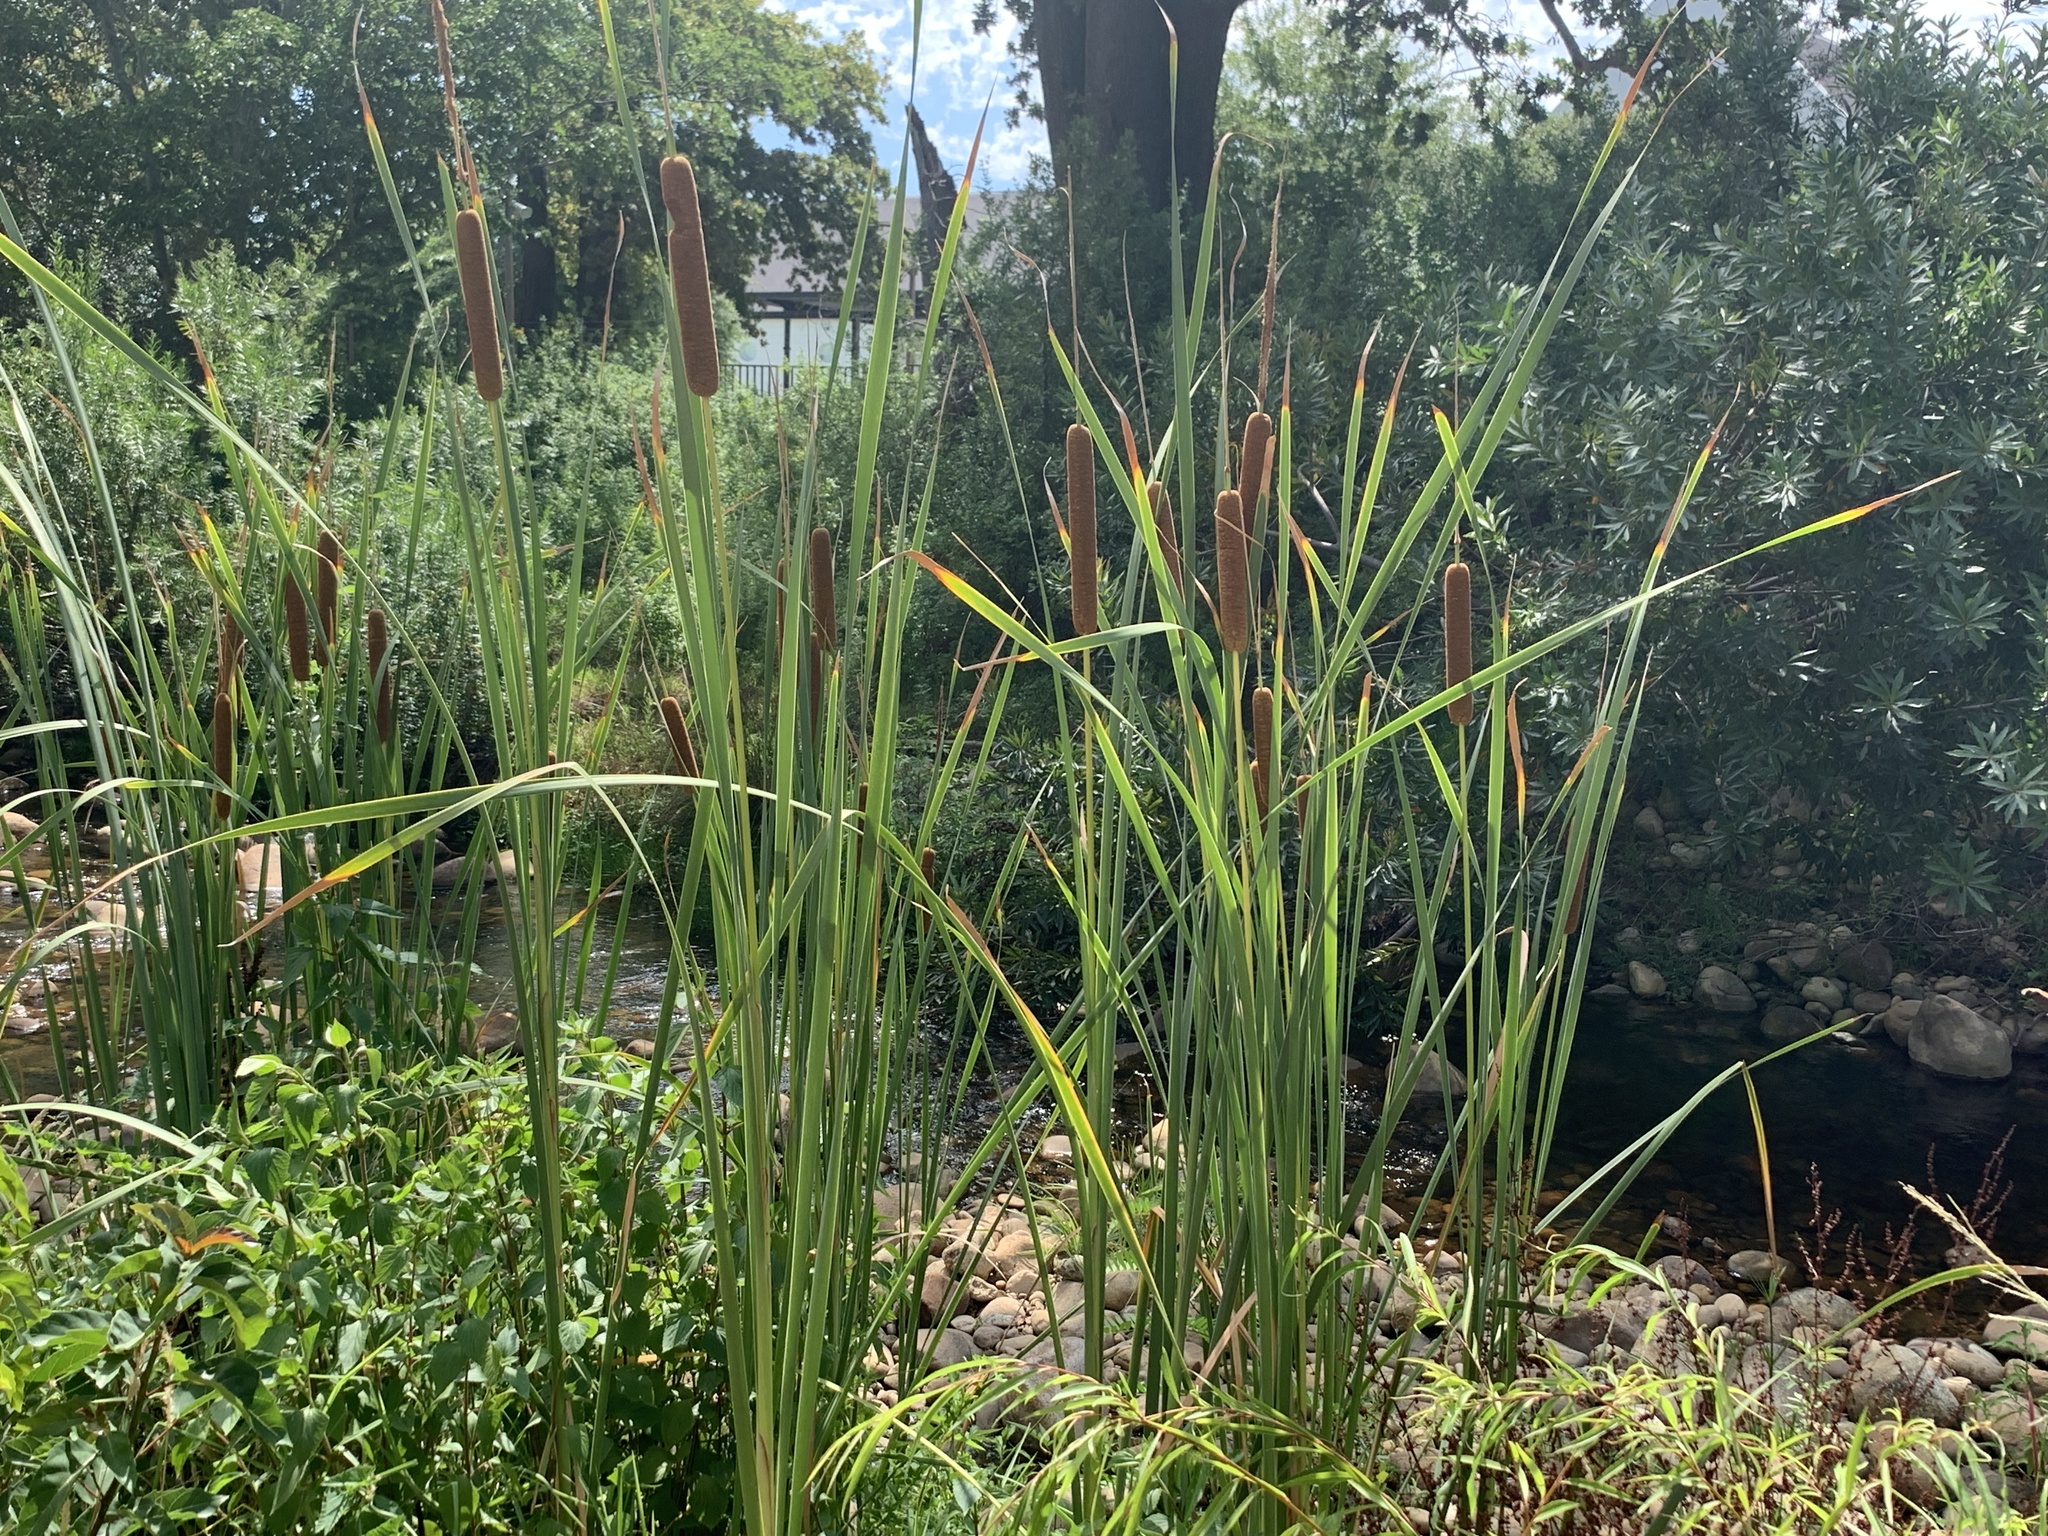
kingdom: Plantae
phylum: Tracheophyta
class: Liliopsida
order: Poales
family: Typhaceae
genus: Typha
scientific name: Typha capensis
